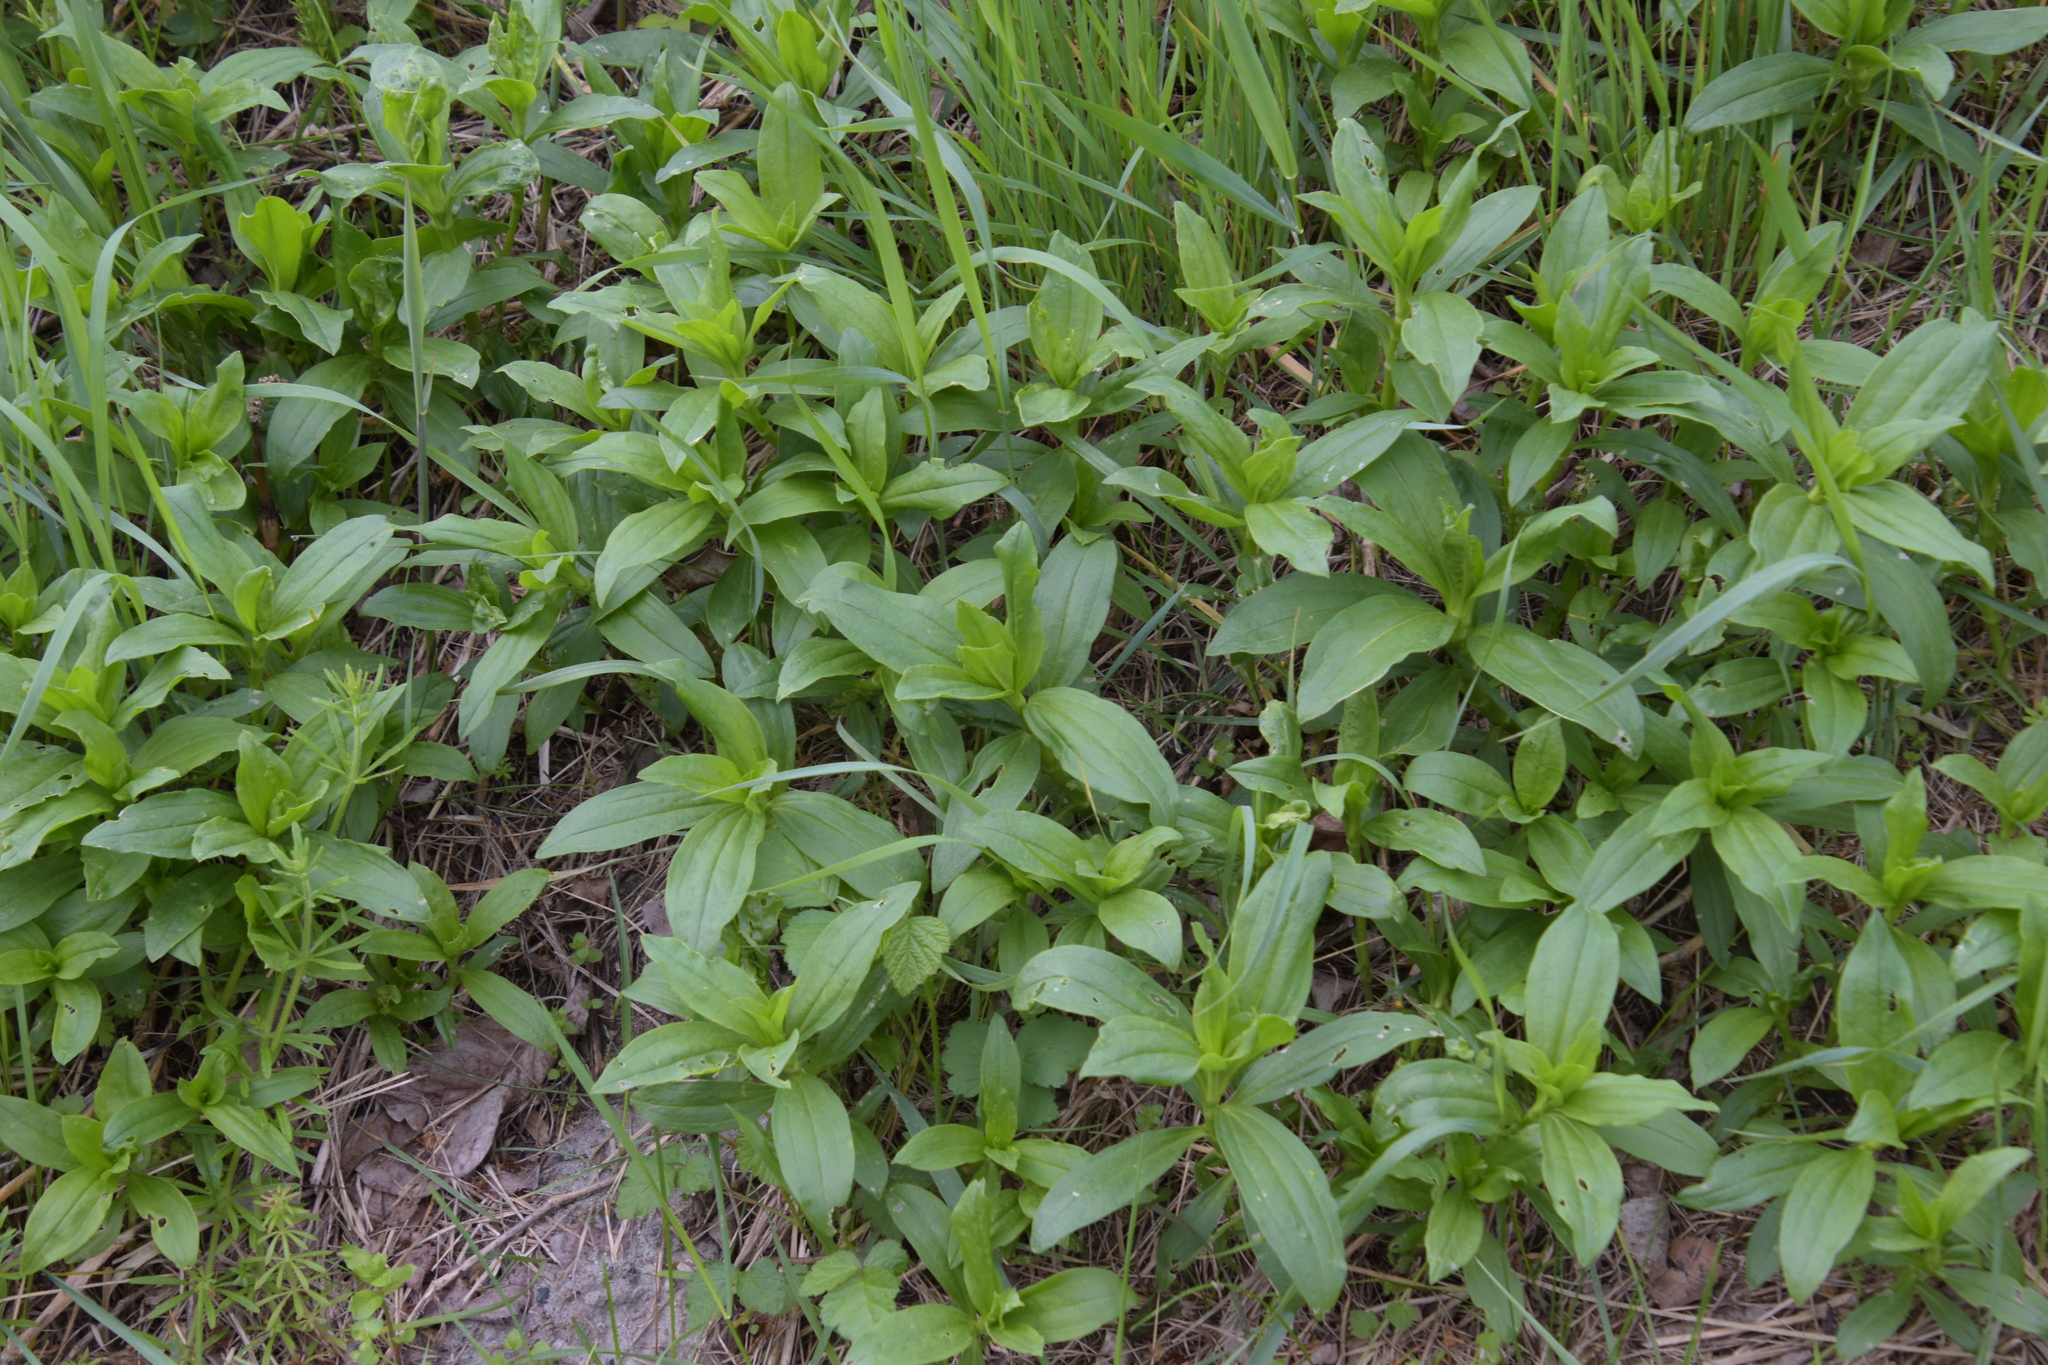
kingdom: Plantae
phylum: Tracheophyta
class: Magnoliopsida
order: Caryophyllales
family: Caryophyllaceae
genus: Saponaria
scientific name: Saponaria officinalis
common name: Soapwort
